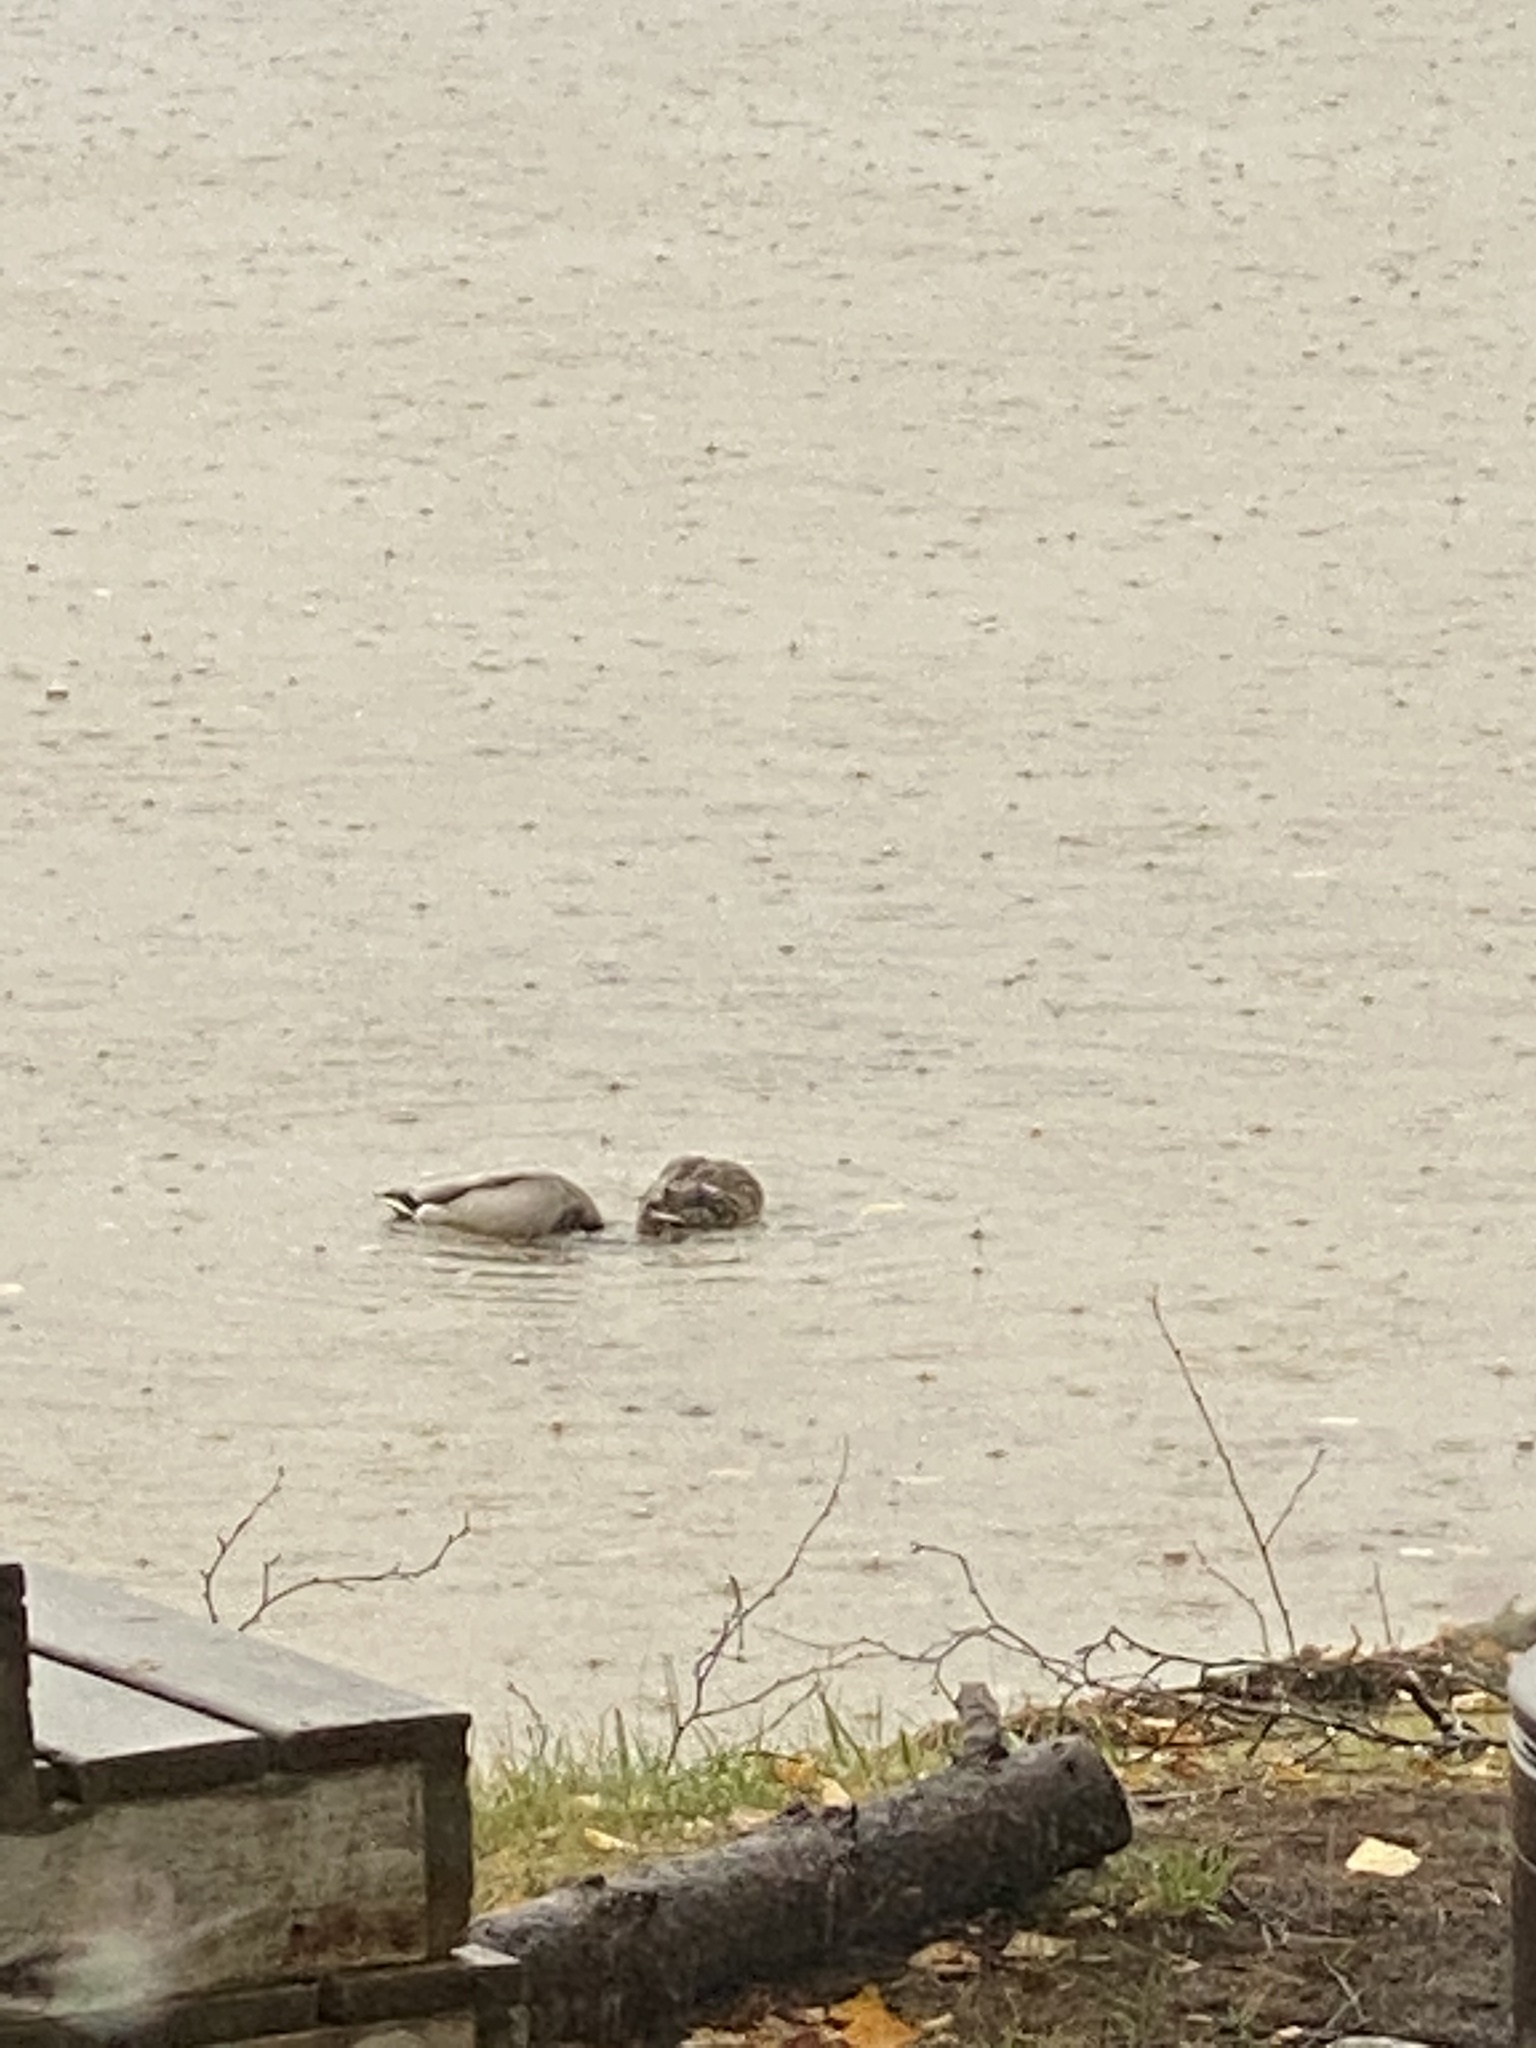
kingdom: Animalia
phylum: Chordata
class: Aves
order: Anseriformes
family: Anatidae
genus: Anas
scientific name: Anas platyrhynchos
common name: Mallard
